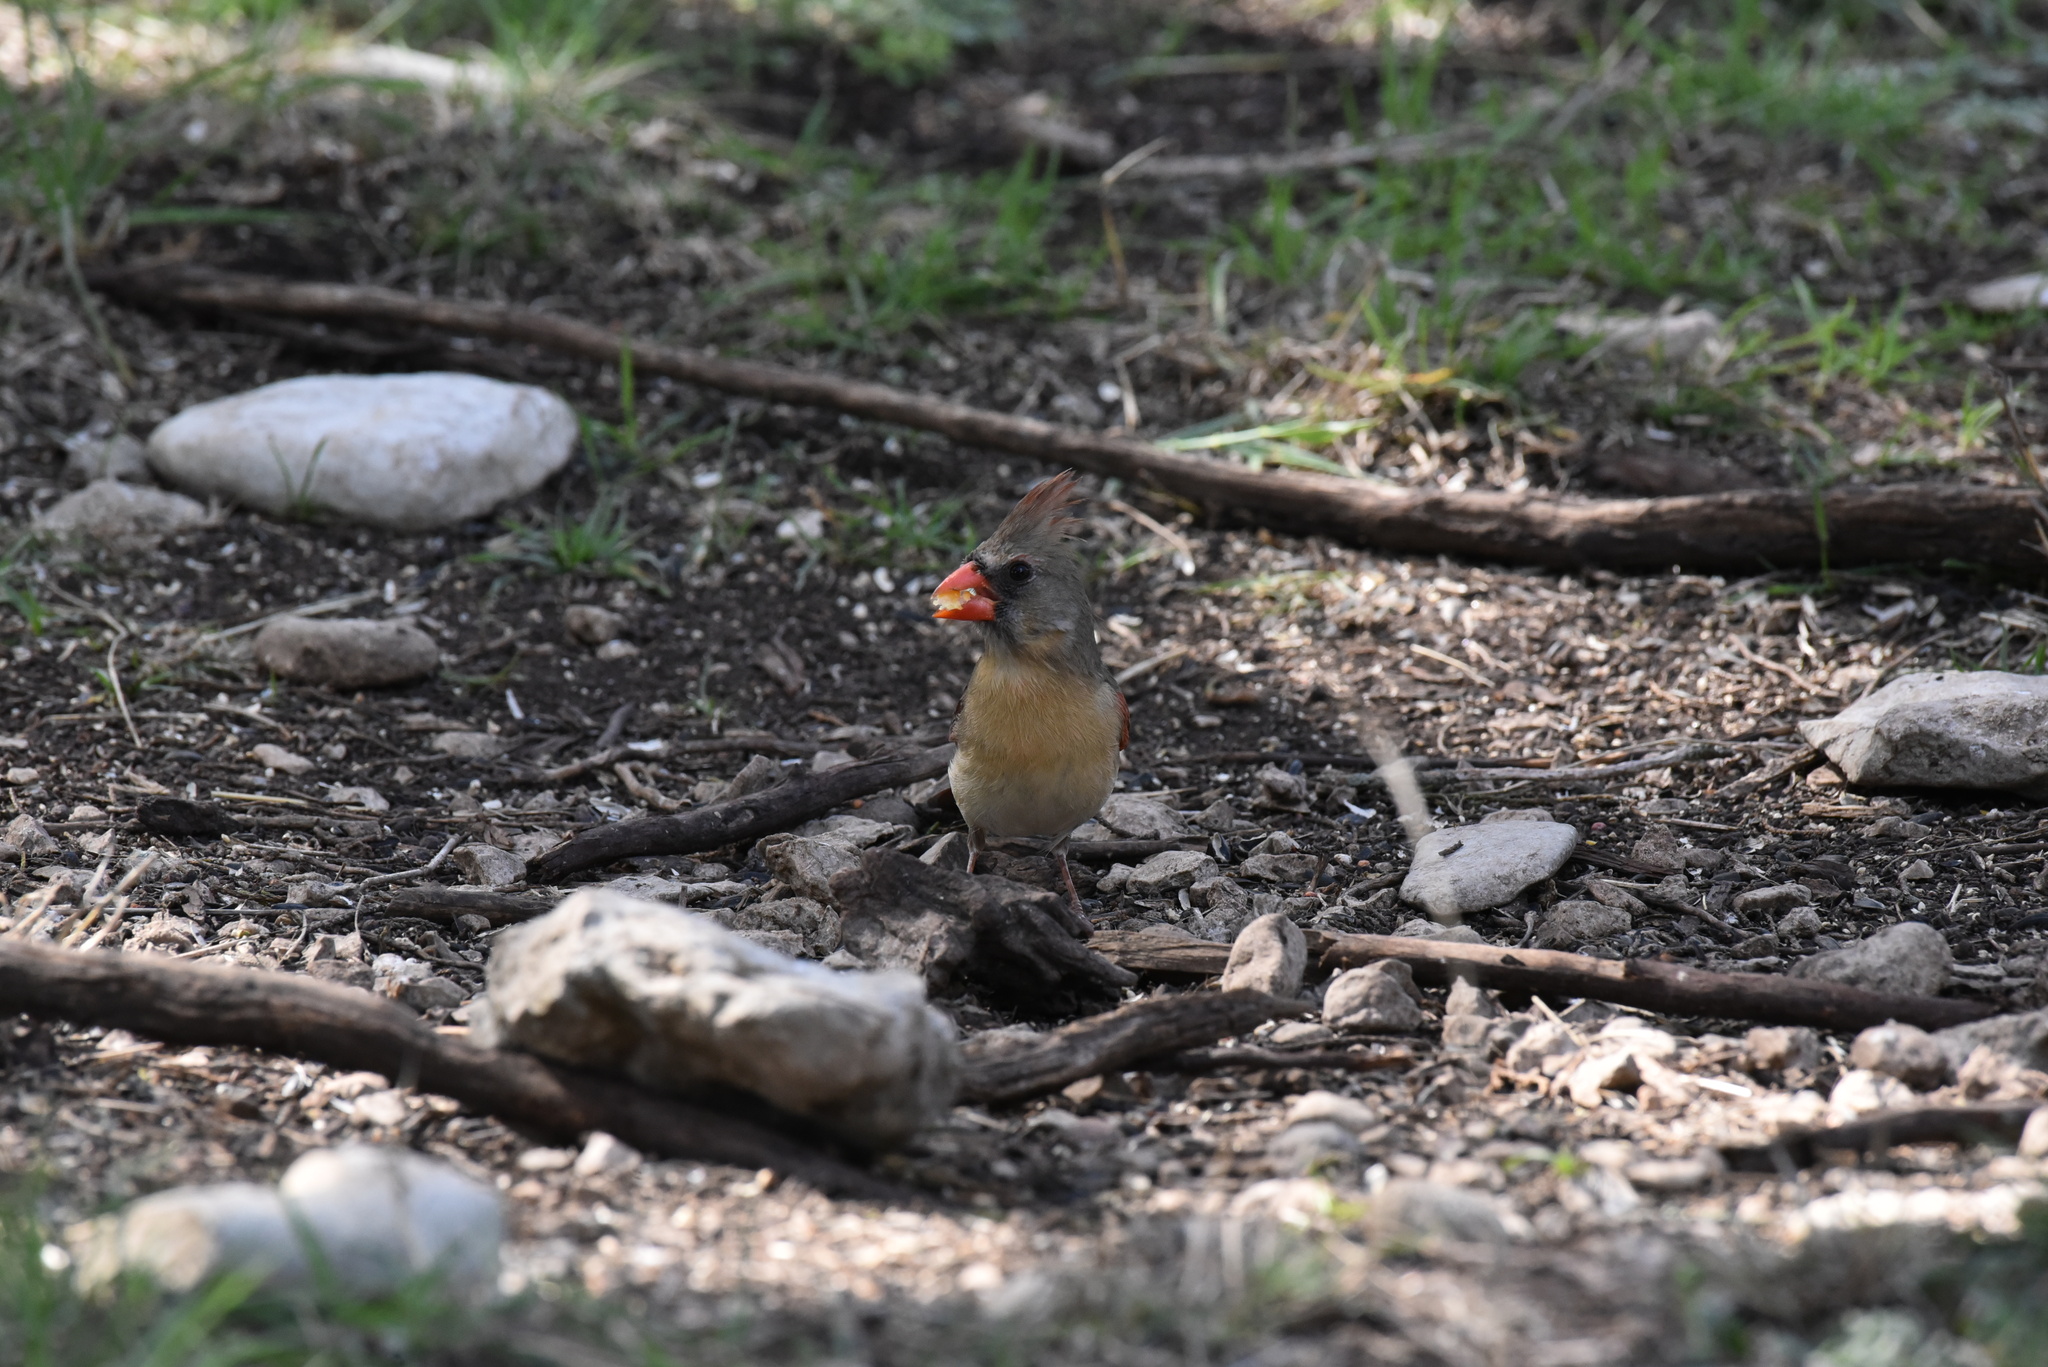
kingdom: Animalia
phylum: Chordata
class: Aves
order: Passeriformes
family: Cardinalidae
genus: Cardinalis
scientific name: Cardinalis cardinalis
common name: Northern cardinal
